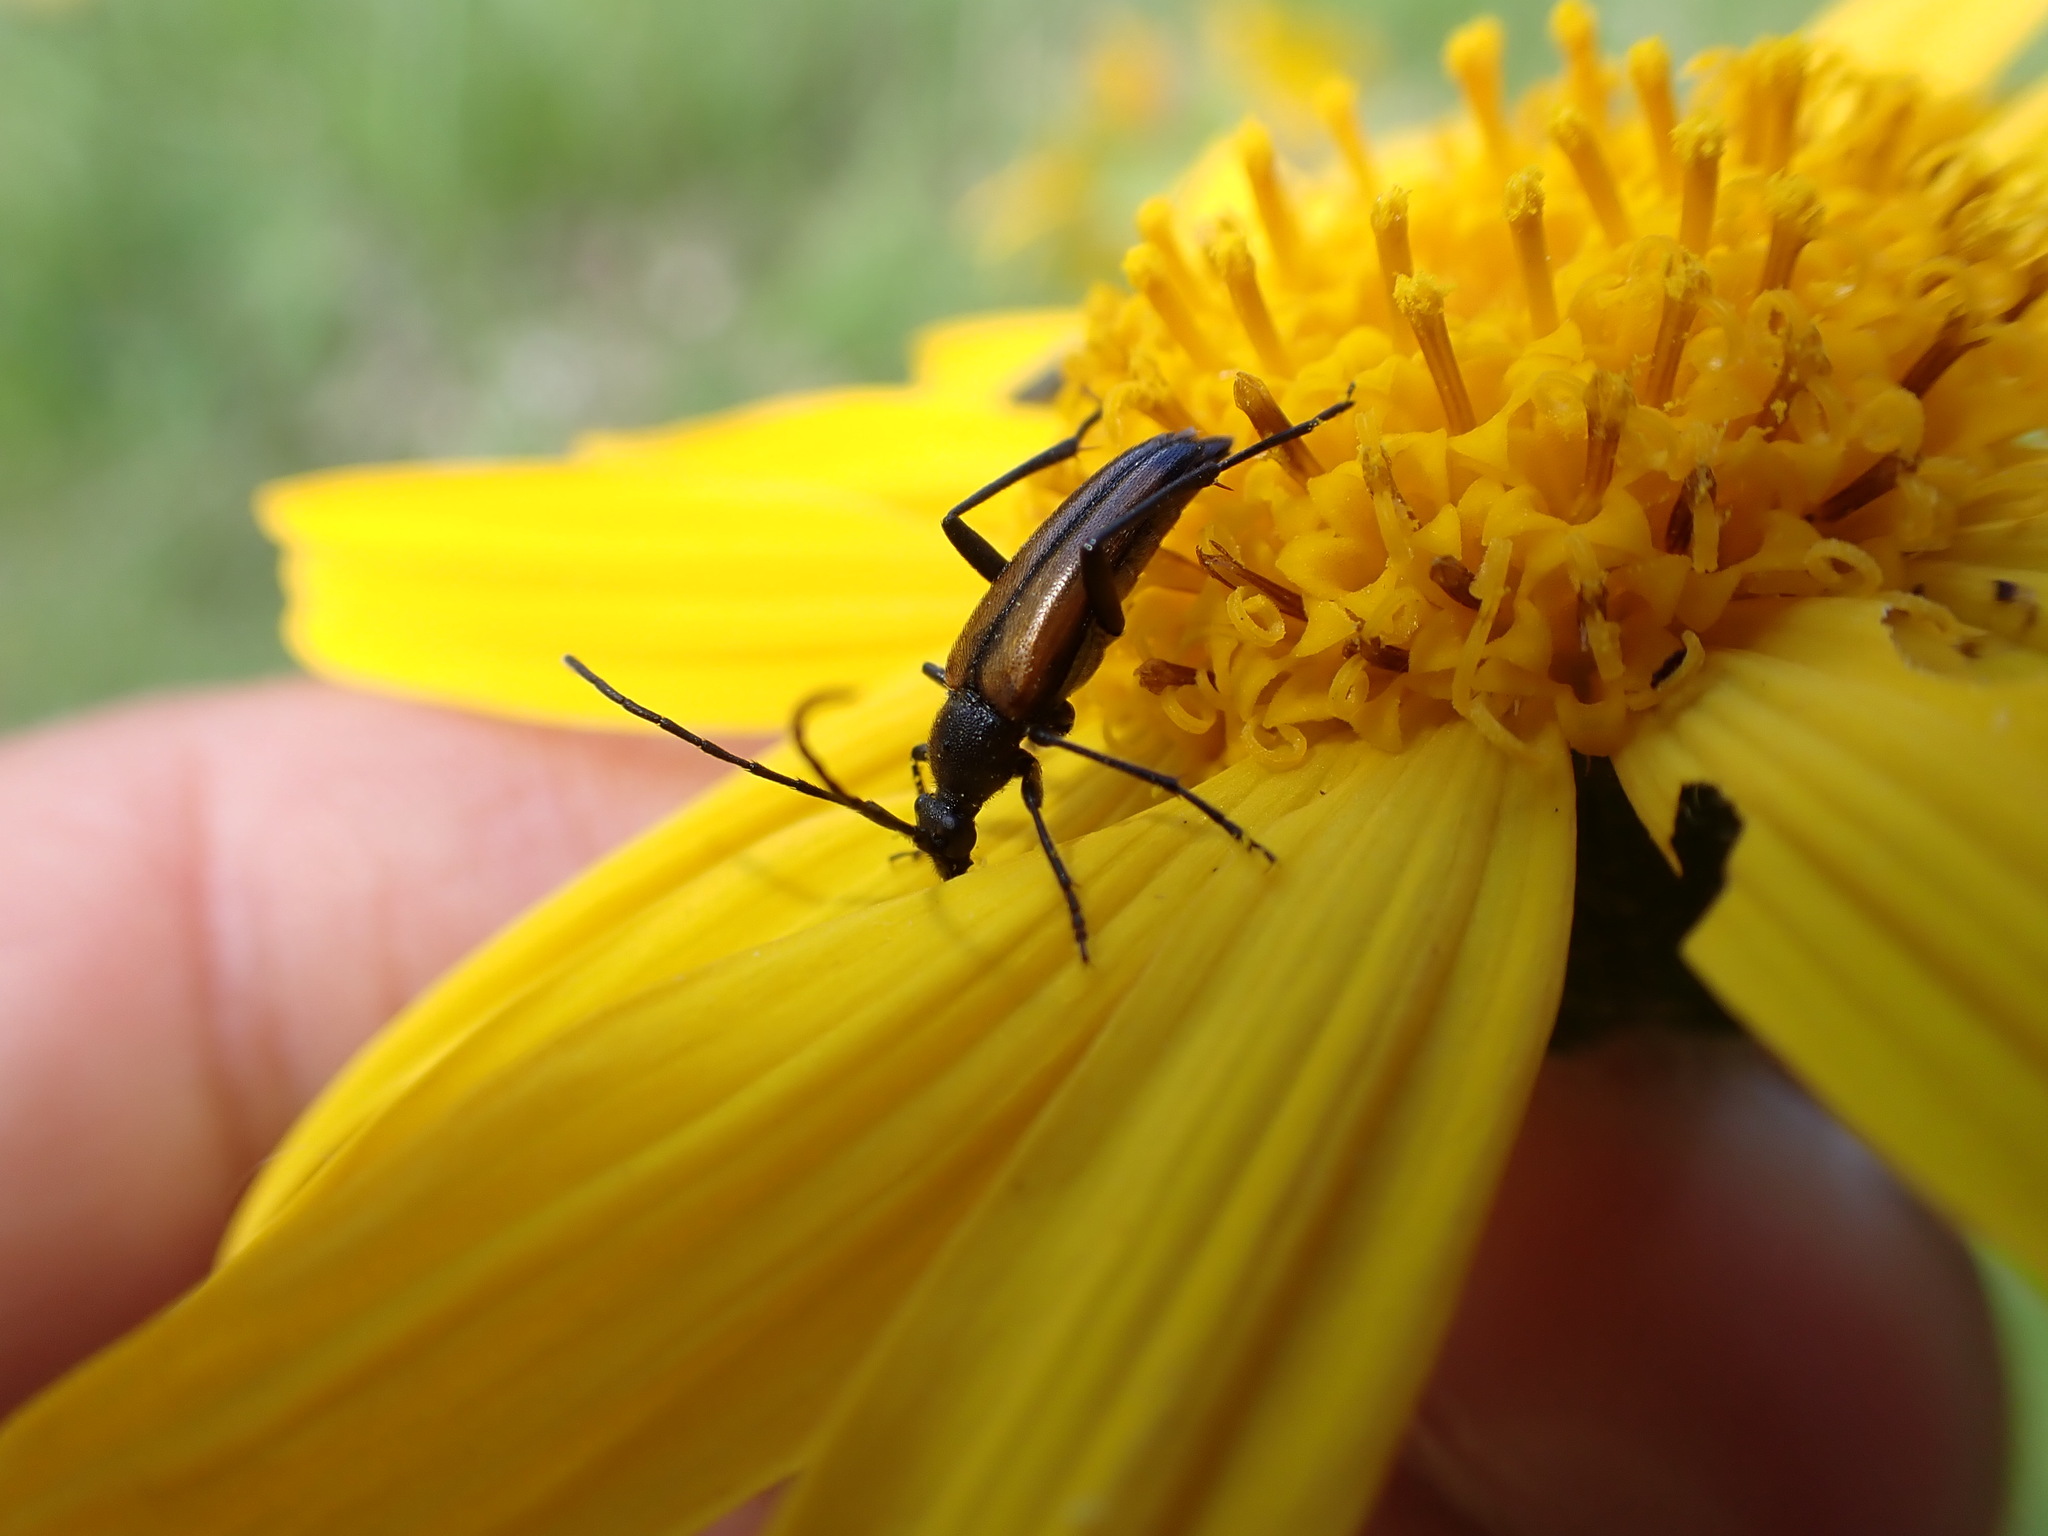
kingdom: Animalia
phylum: Arthropoda
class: Insecta
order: Coleoptera
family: Cerambycidae
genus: Stenurella
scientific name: Stenurella melanura
